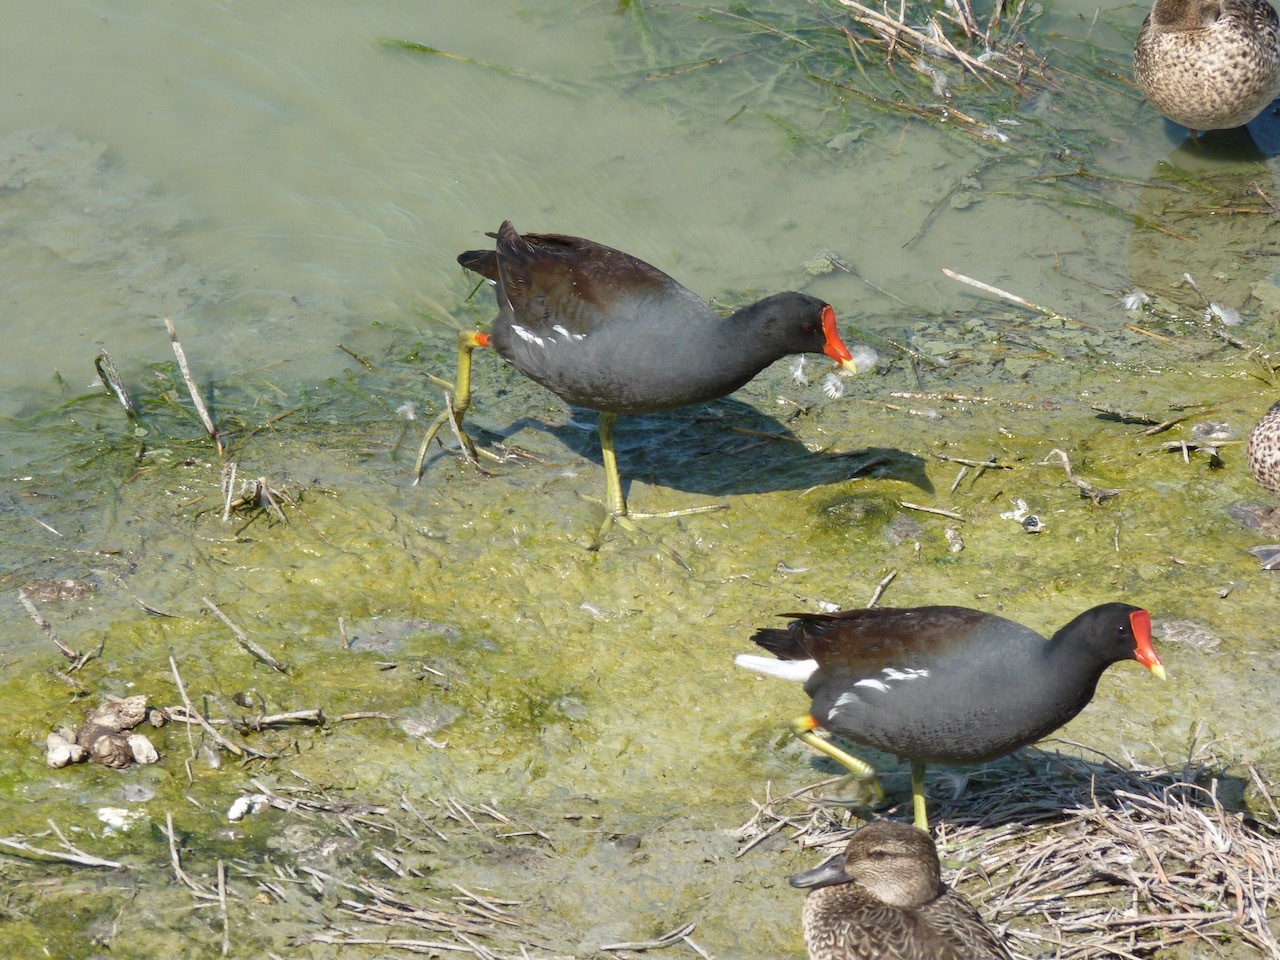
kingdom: Animalia
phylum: Chordata
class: Aves
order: Gruiformes
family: Rallidae
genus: Gallinula
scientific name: Gallinula chloropus
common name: Common moorhen
